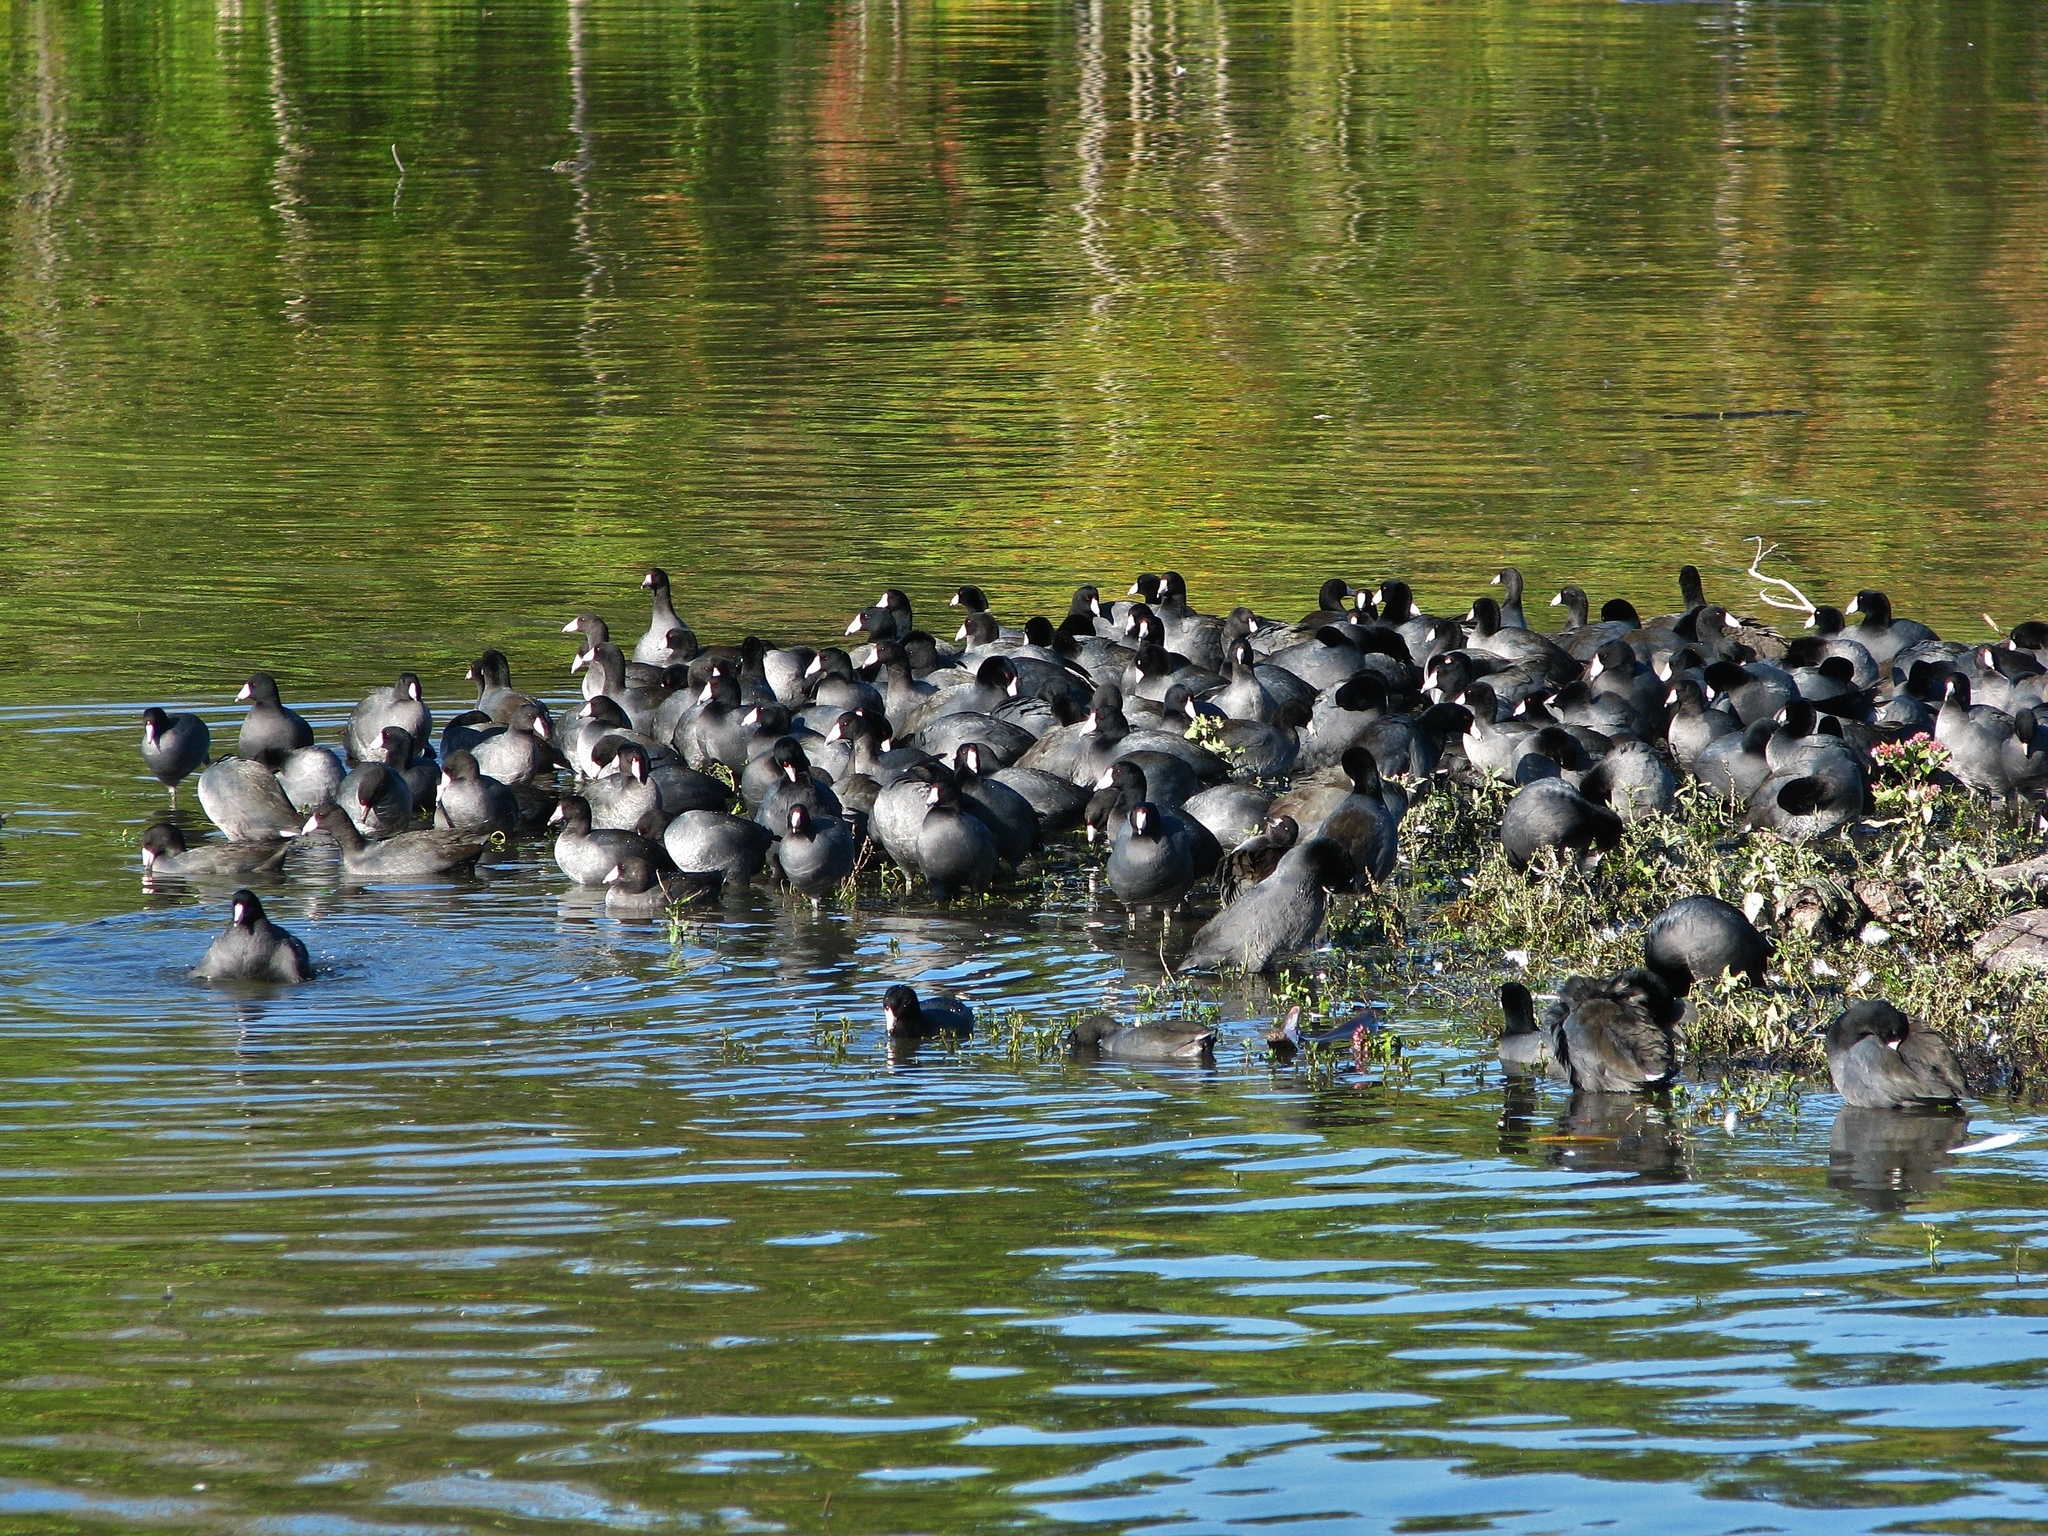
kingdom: Animalia
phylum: Chordata
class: Aves
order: Gruiformes
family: Rallidae
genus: Fulica
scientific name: Fulica americana
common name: American coot
